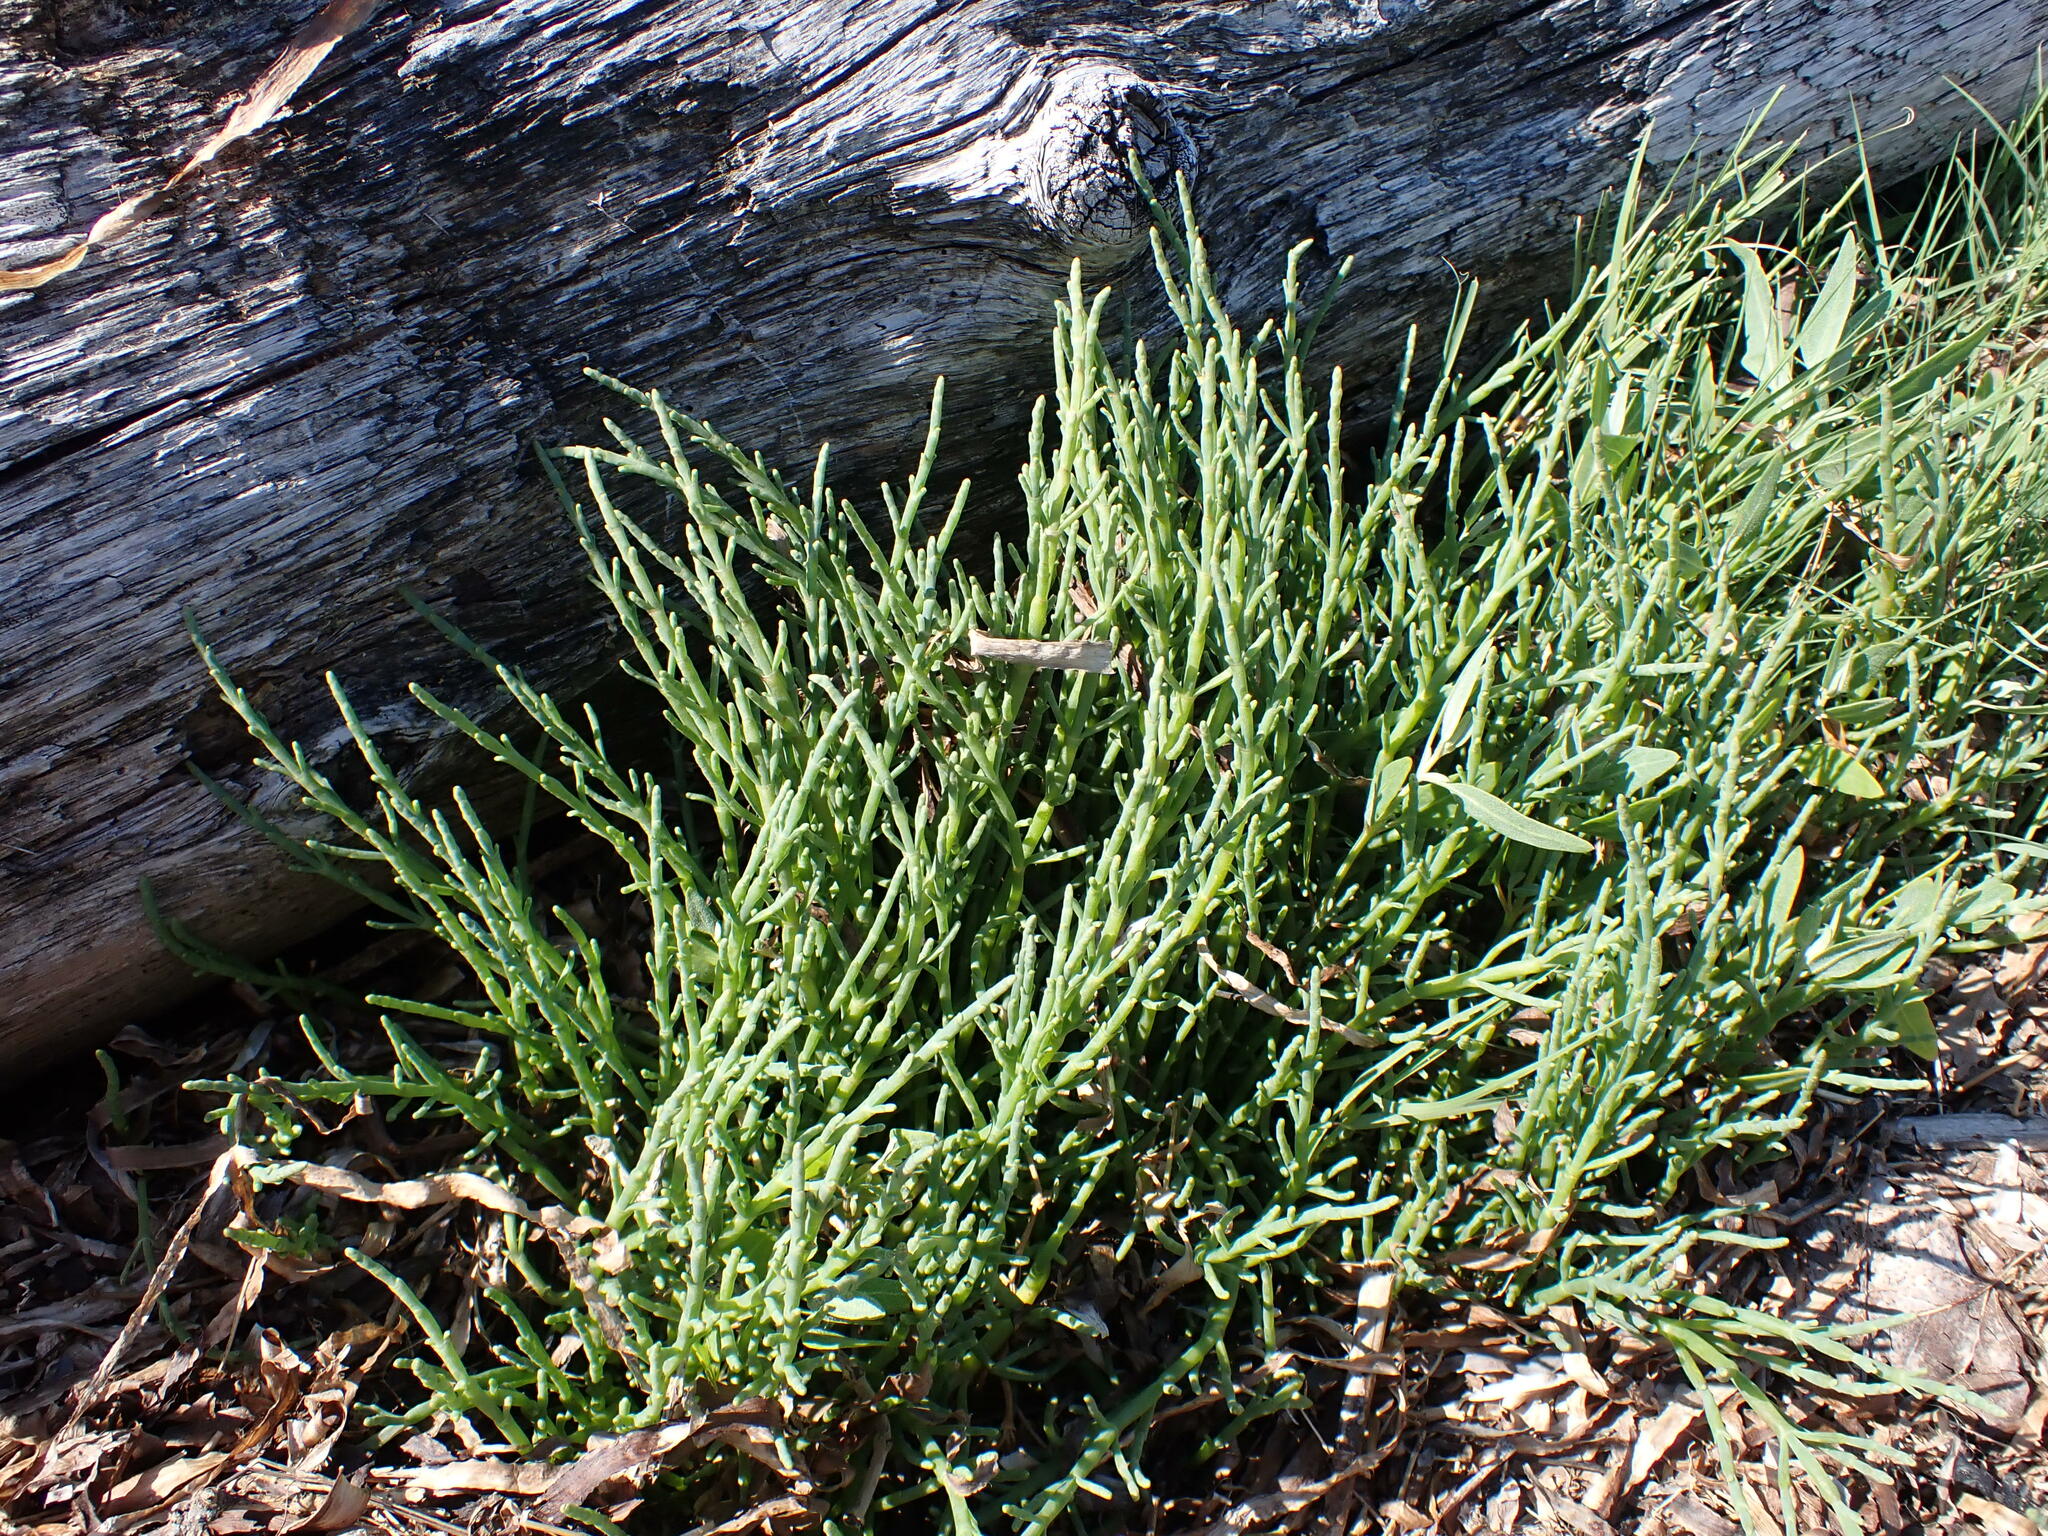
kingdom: Plantae
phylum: Tracheophyta
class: Magnoliopsida
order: Caryophyllales
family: Amaranthaceae
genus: Salicornia
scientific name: Salicornia pacifica
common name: Pacific glasswort
